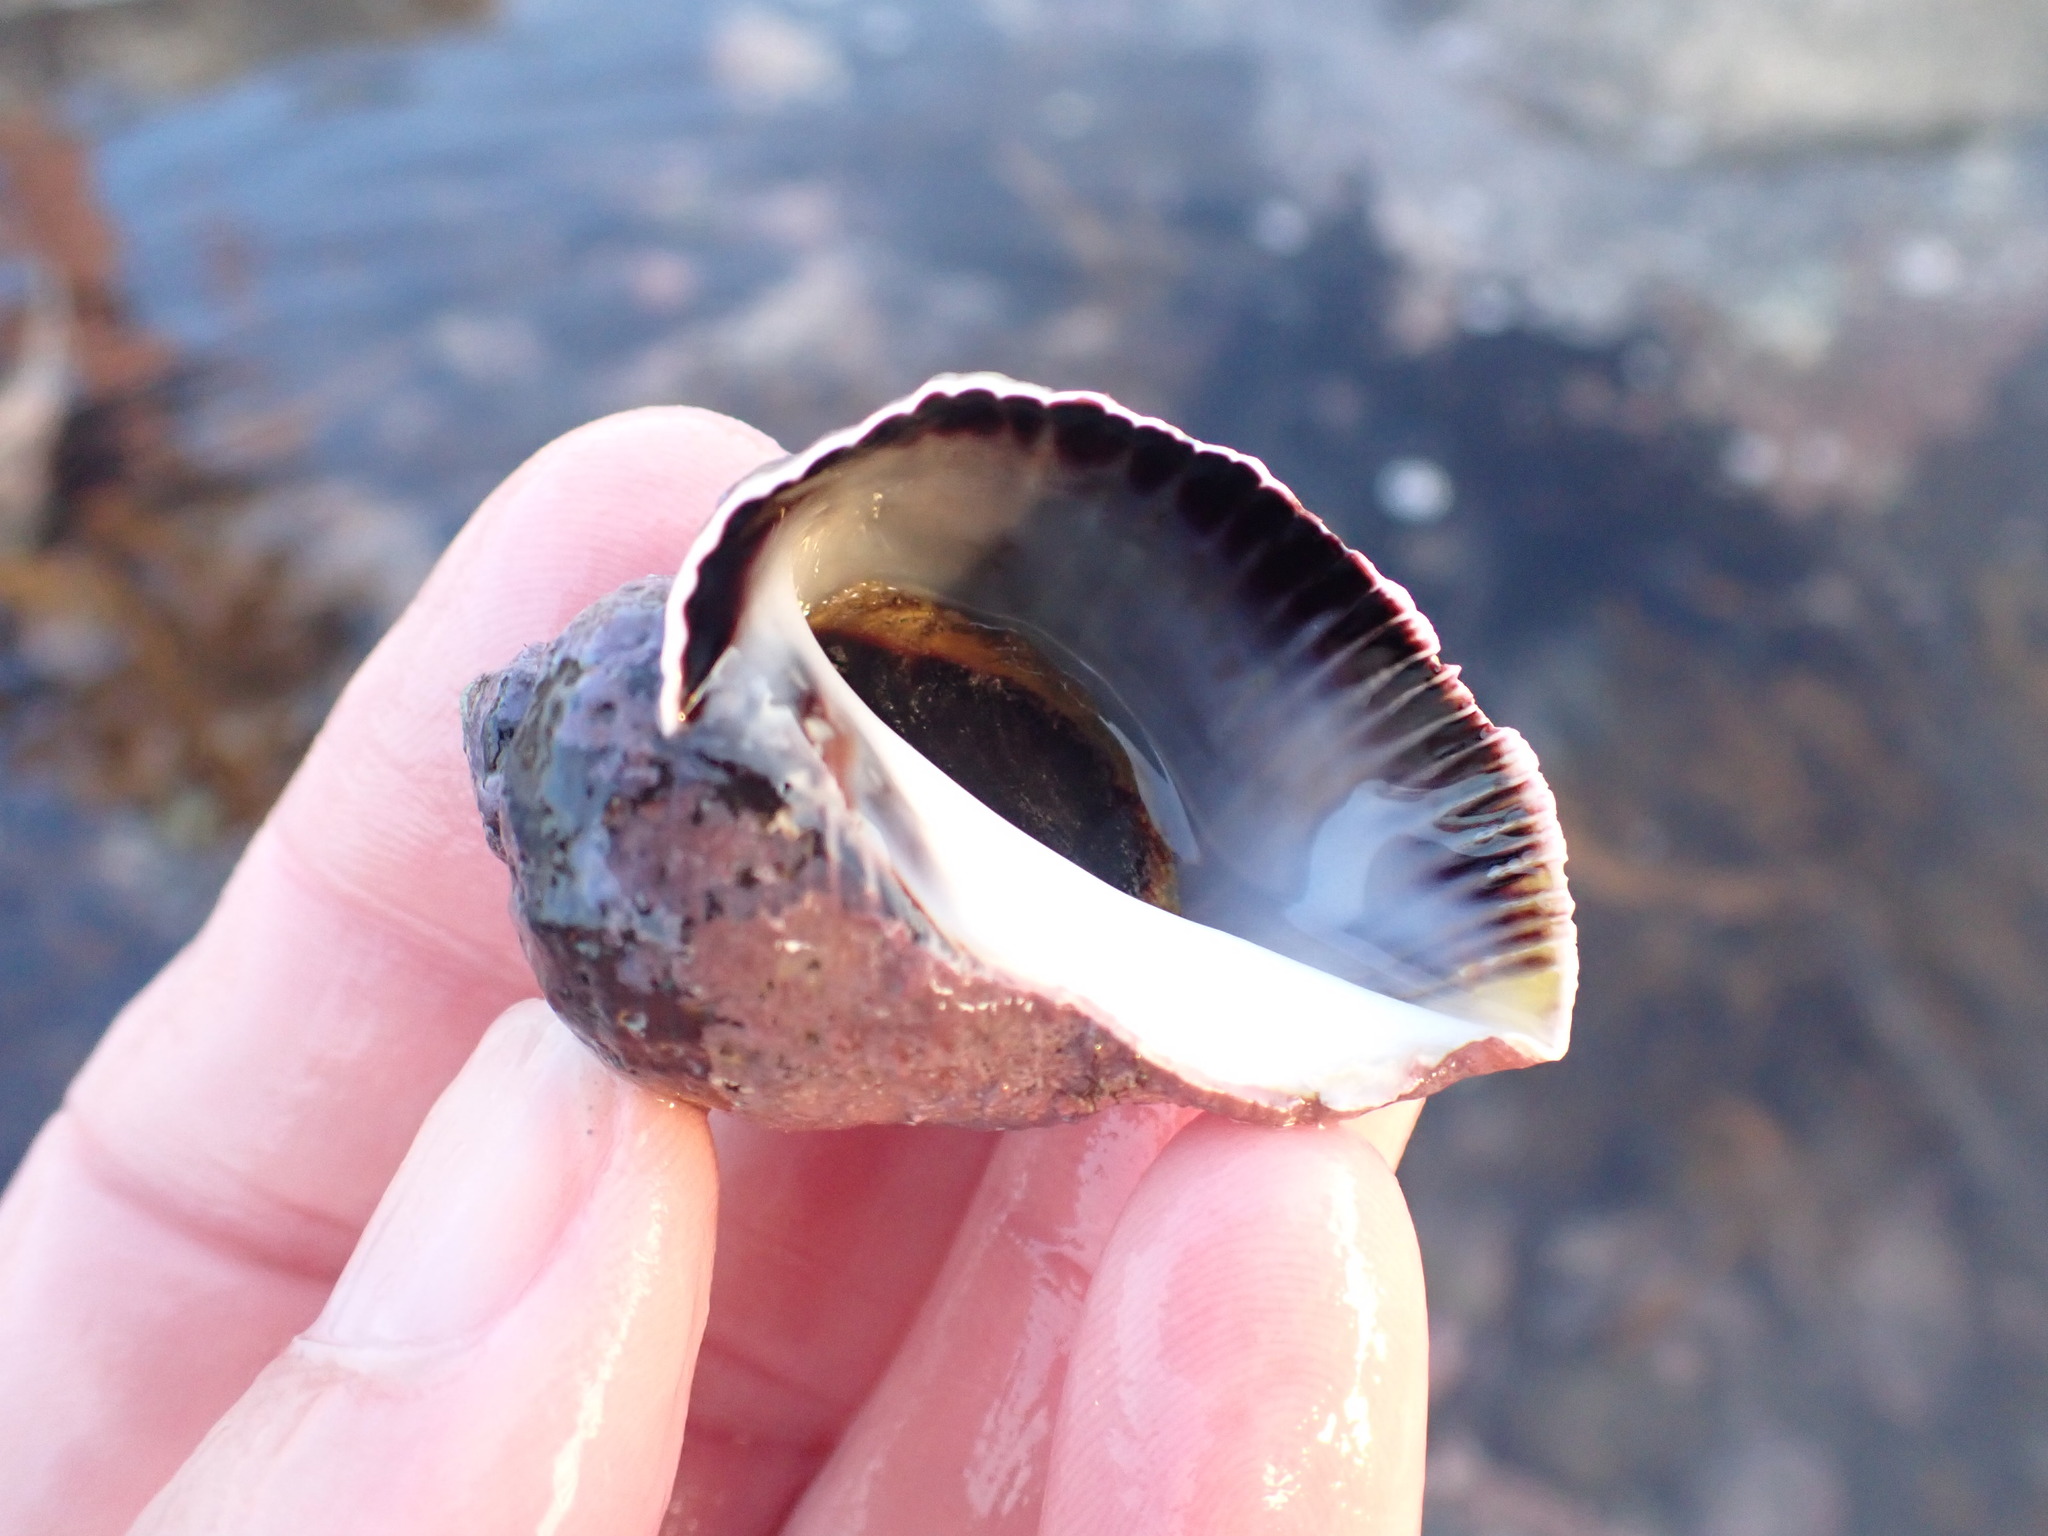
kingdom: Animalia
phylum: Mollusca
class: Gastropoda
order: Neogastropoda
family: Muricidae
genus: Haustrum
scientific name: Haustrum haustorium
